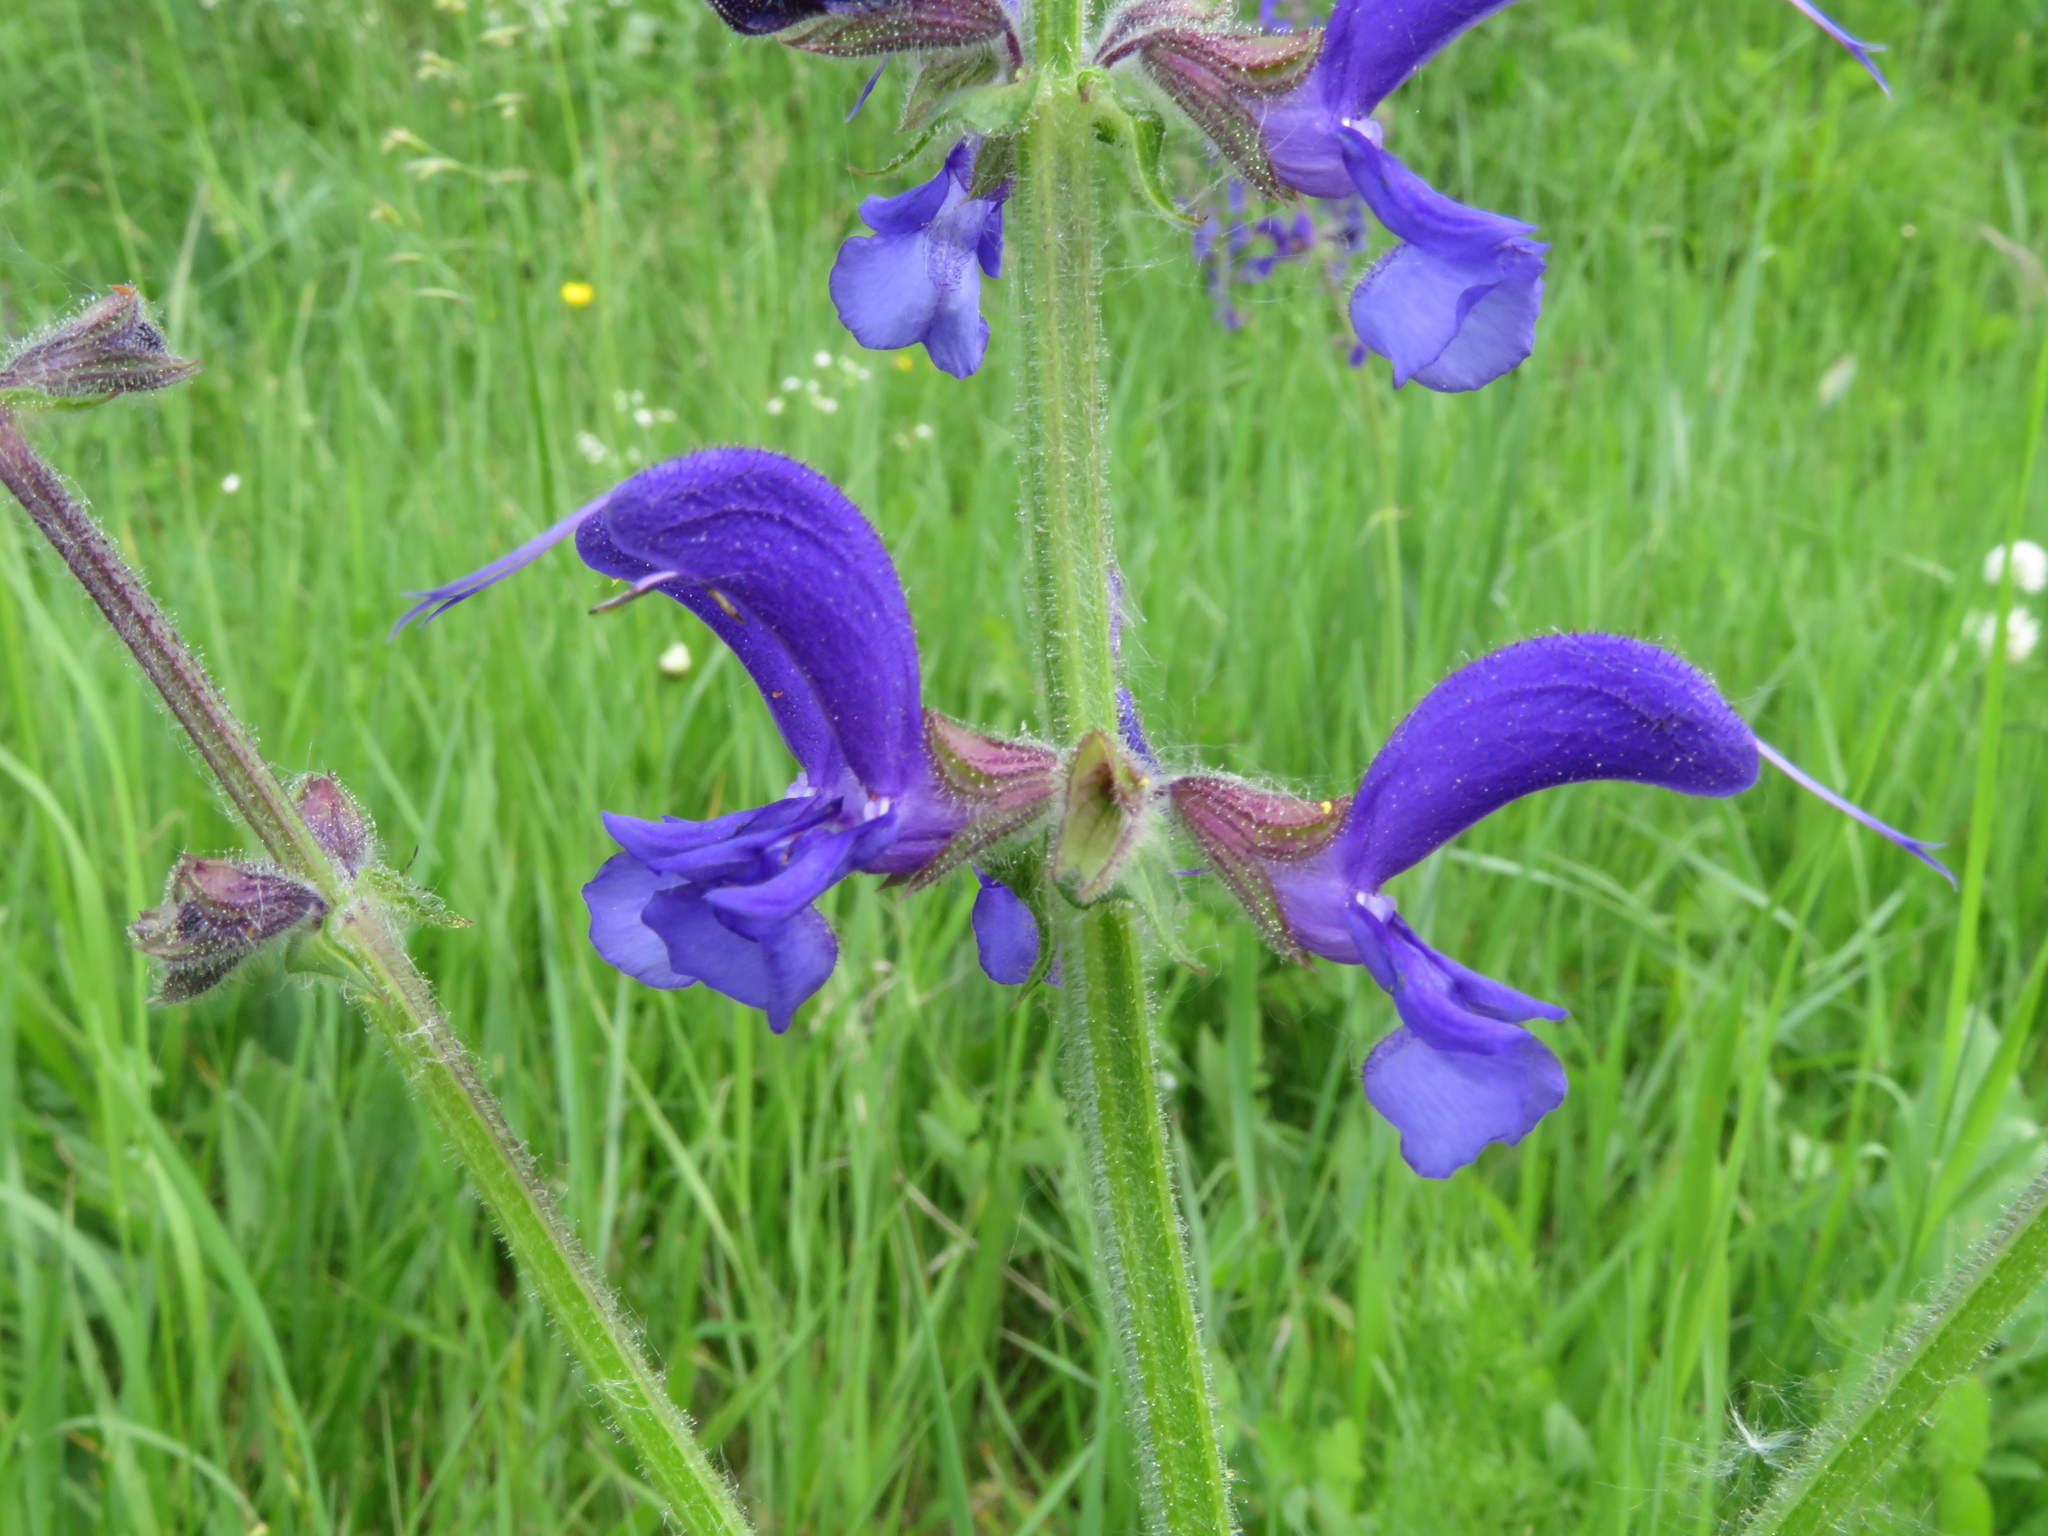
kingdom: Plantae
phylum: Tracheophyta
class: Magnoliopsida
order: Lamiales
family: Lamiaceae
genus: Salvia
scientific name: Salvia pratensis
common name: Meadow sage
